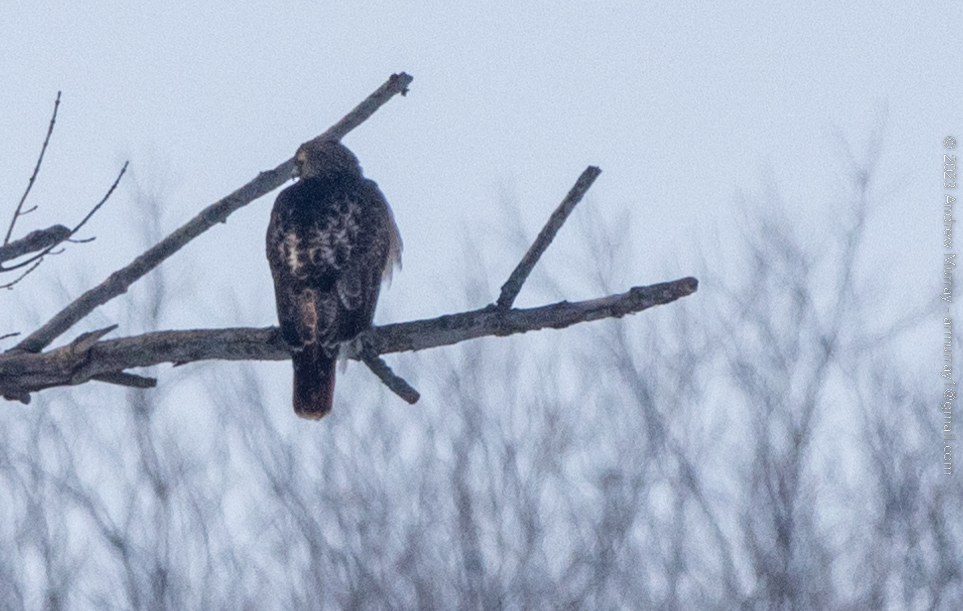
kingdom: Animalia
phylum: Chordata
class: Aves
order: Accipitriformes
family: Accipitridae
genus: Buteo
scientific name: Buteo jamaicensis
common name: Red-tailed hawk
